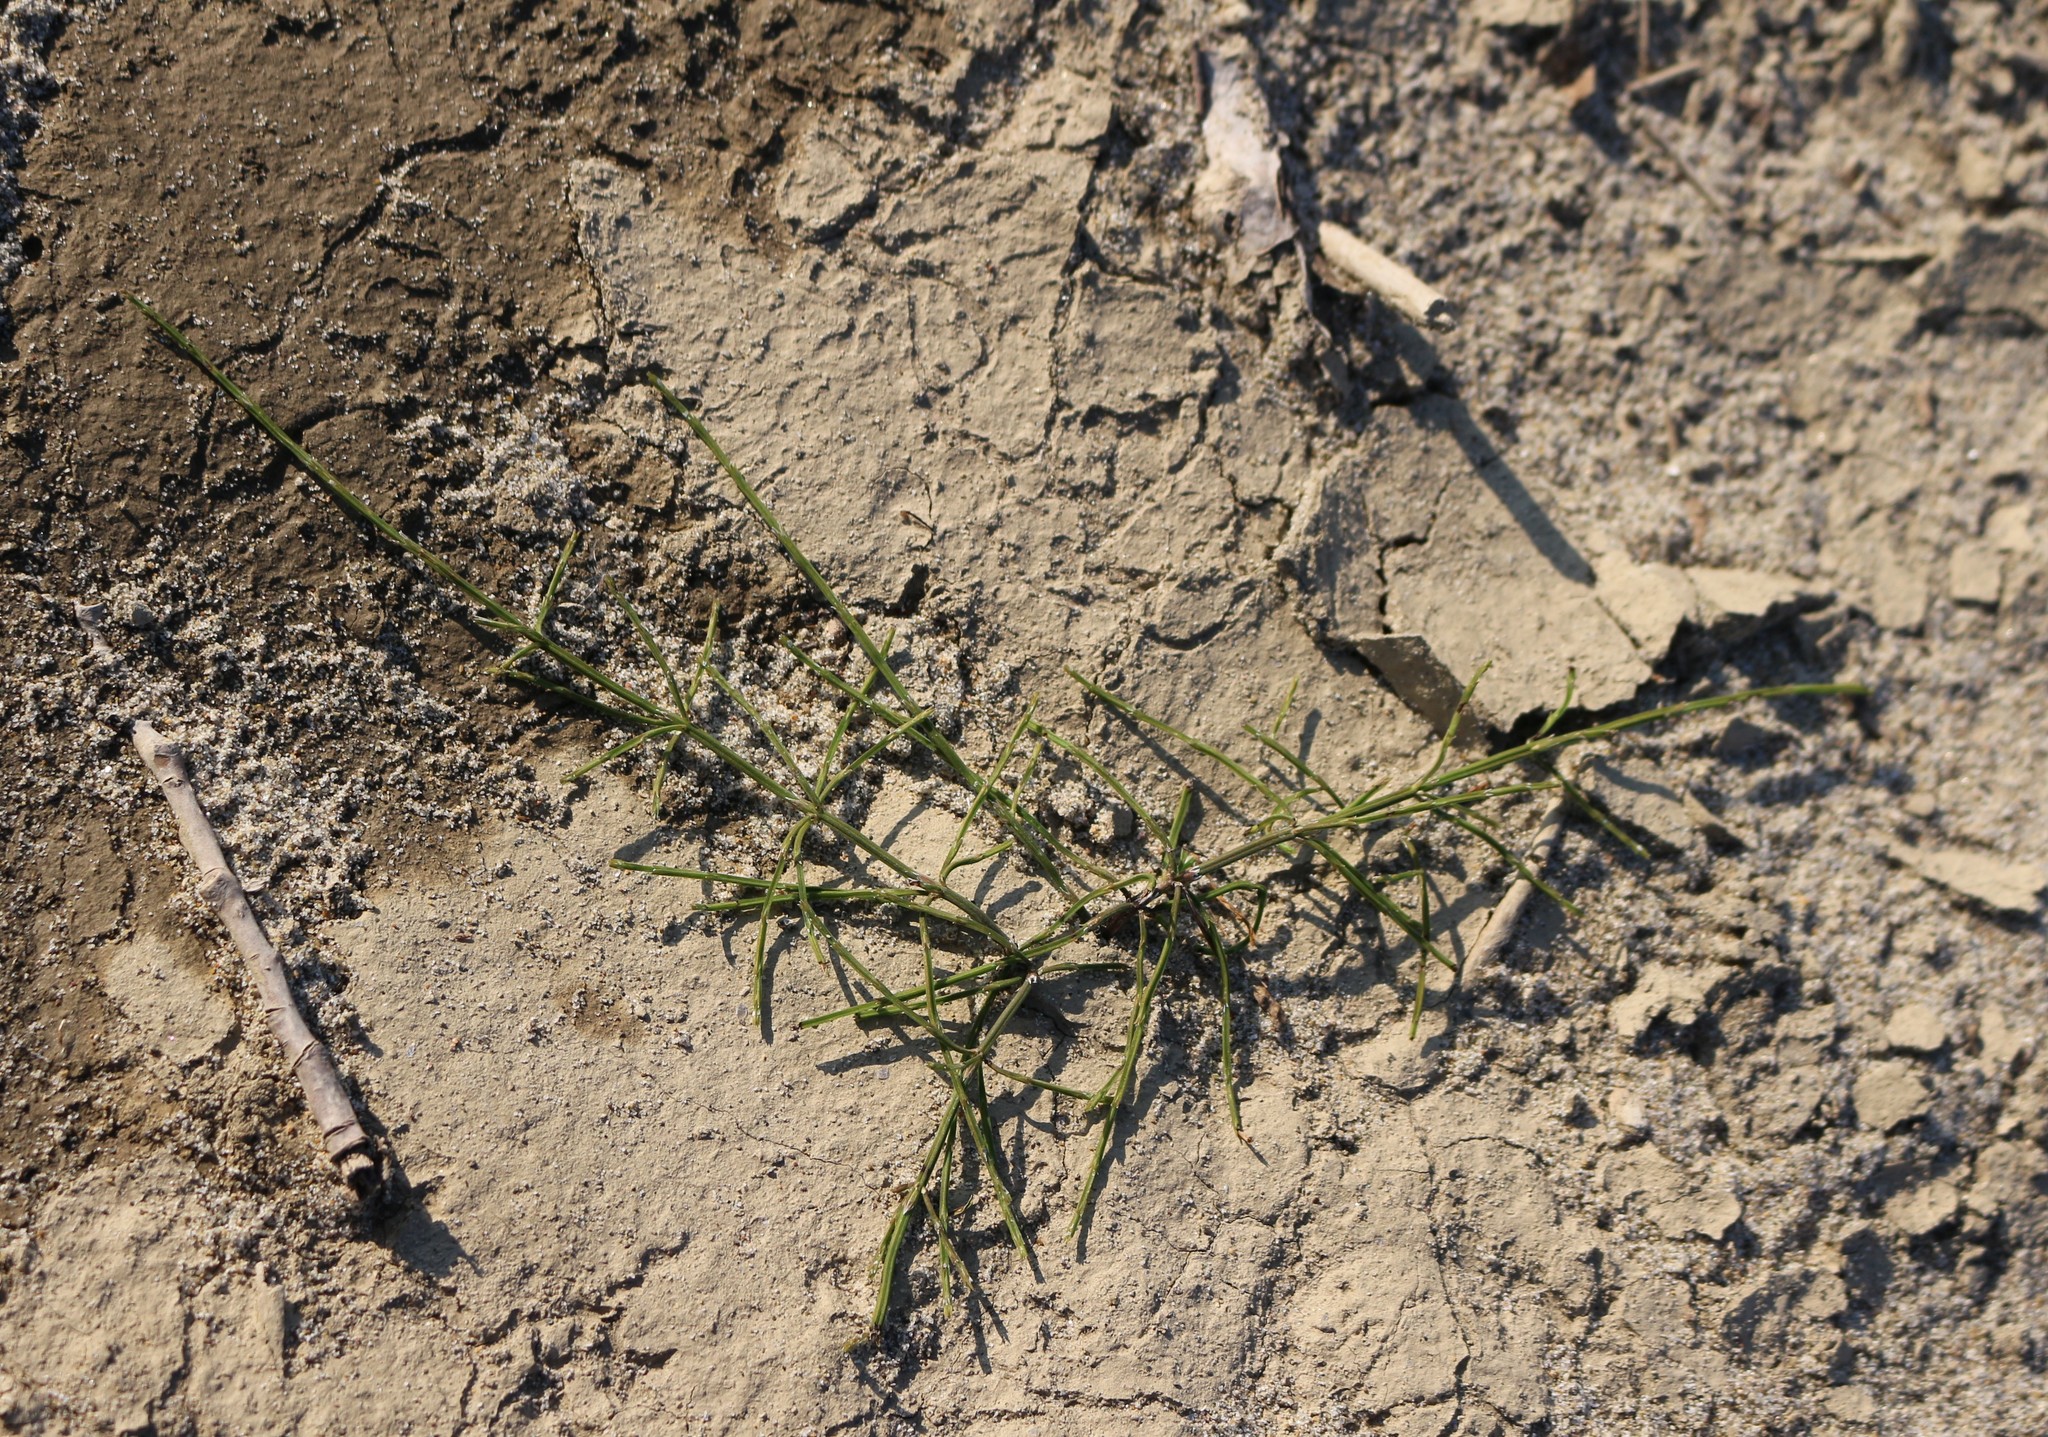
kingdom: Plantae
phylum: Tracheophyta
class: Polypodiopsida
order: Equisetales
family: Equisetaceae
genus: Equisetum
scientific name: Equisetum ramosissimum
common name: Branched horsetail
